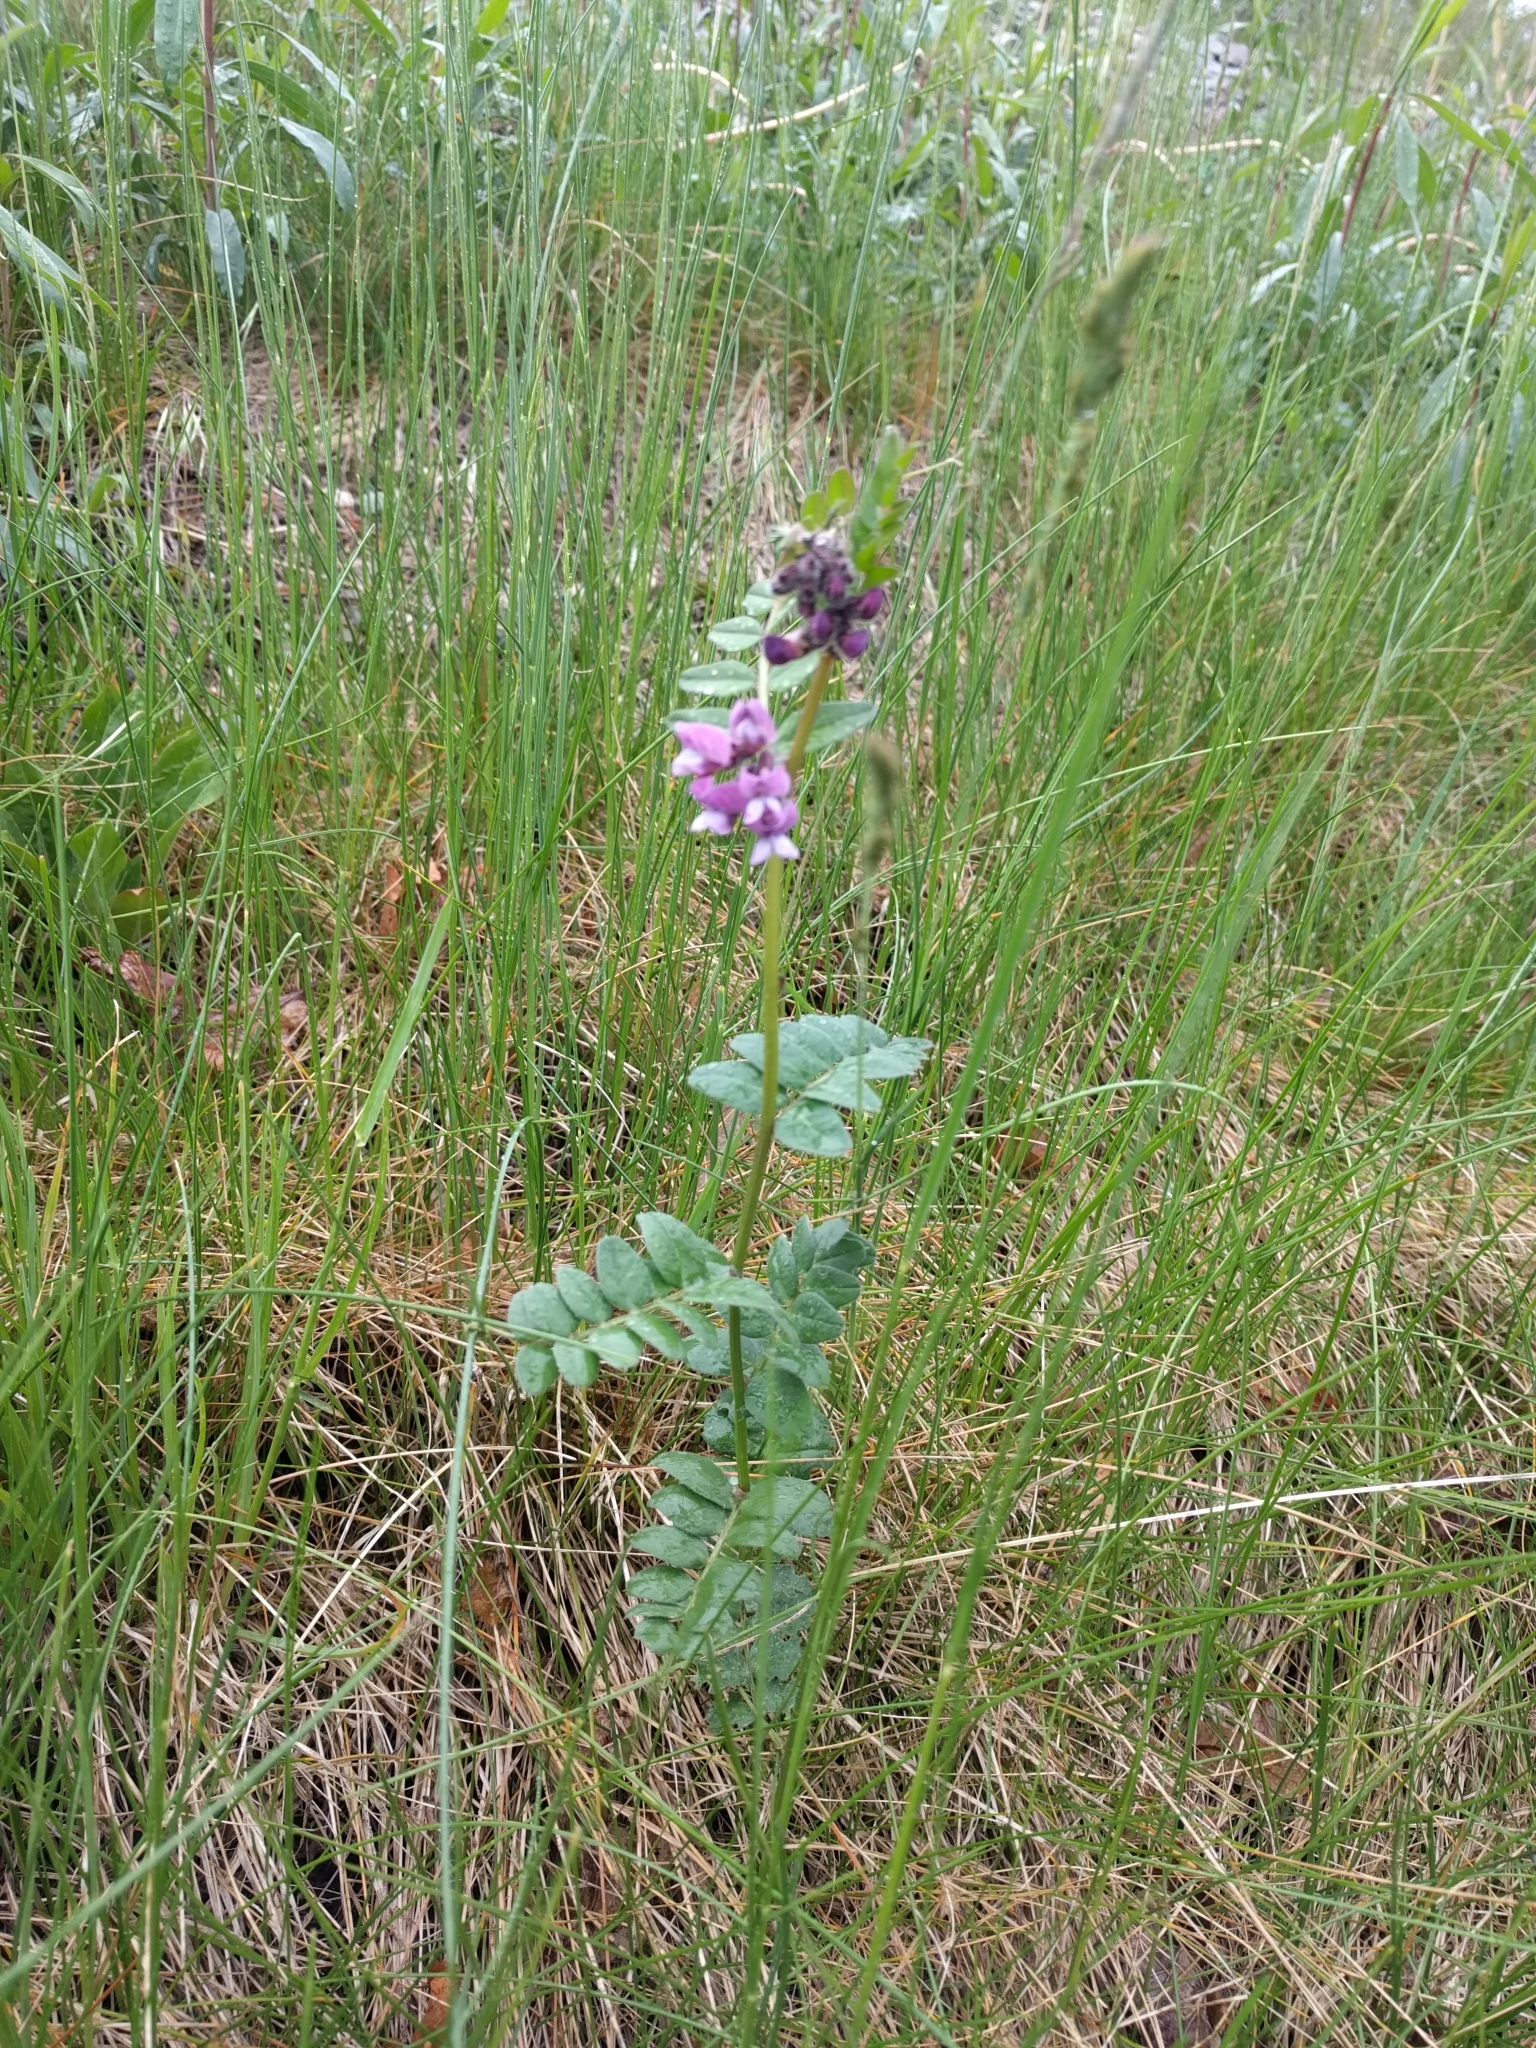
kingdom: Plantae
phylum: Tracheophyta
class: Magnoliopsida
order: Fabales
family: Fabaceae
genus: Vicia
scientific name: Vicia sepium
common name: Bush vetch
